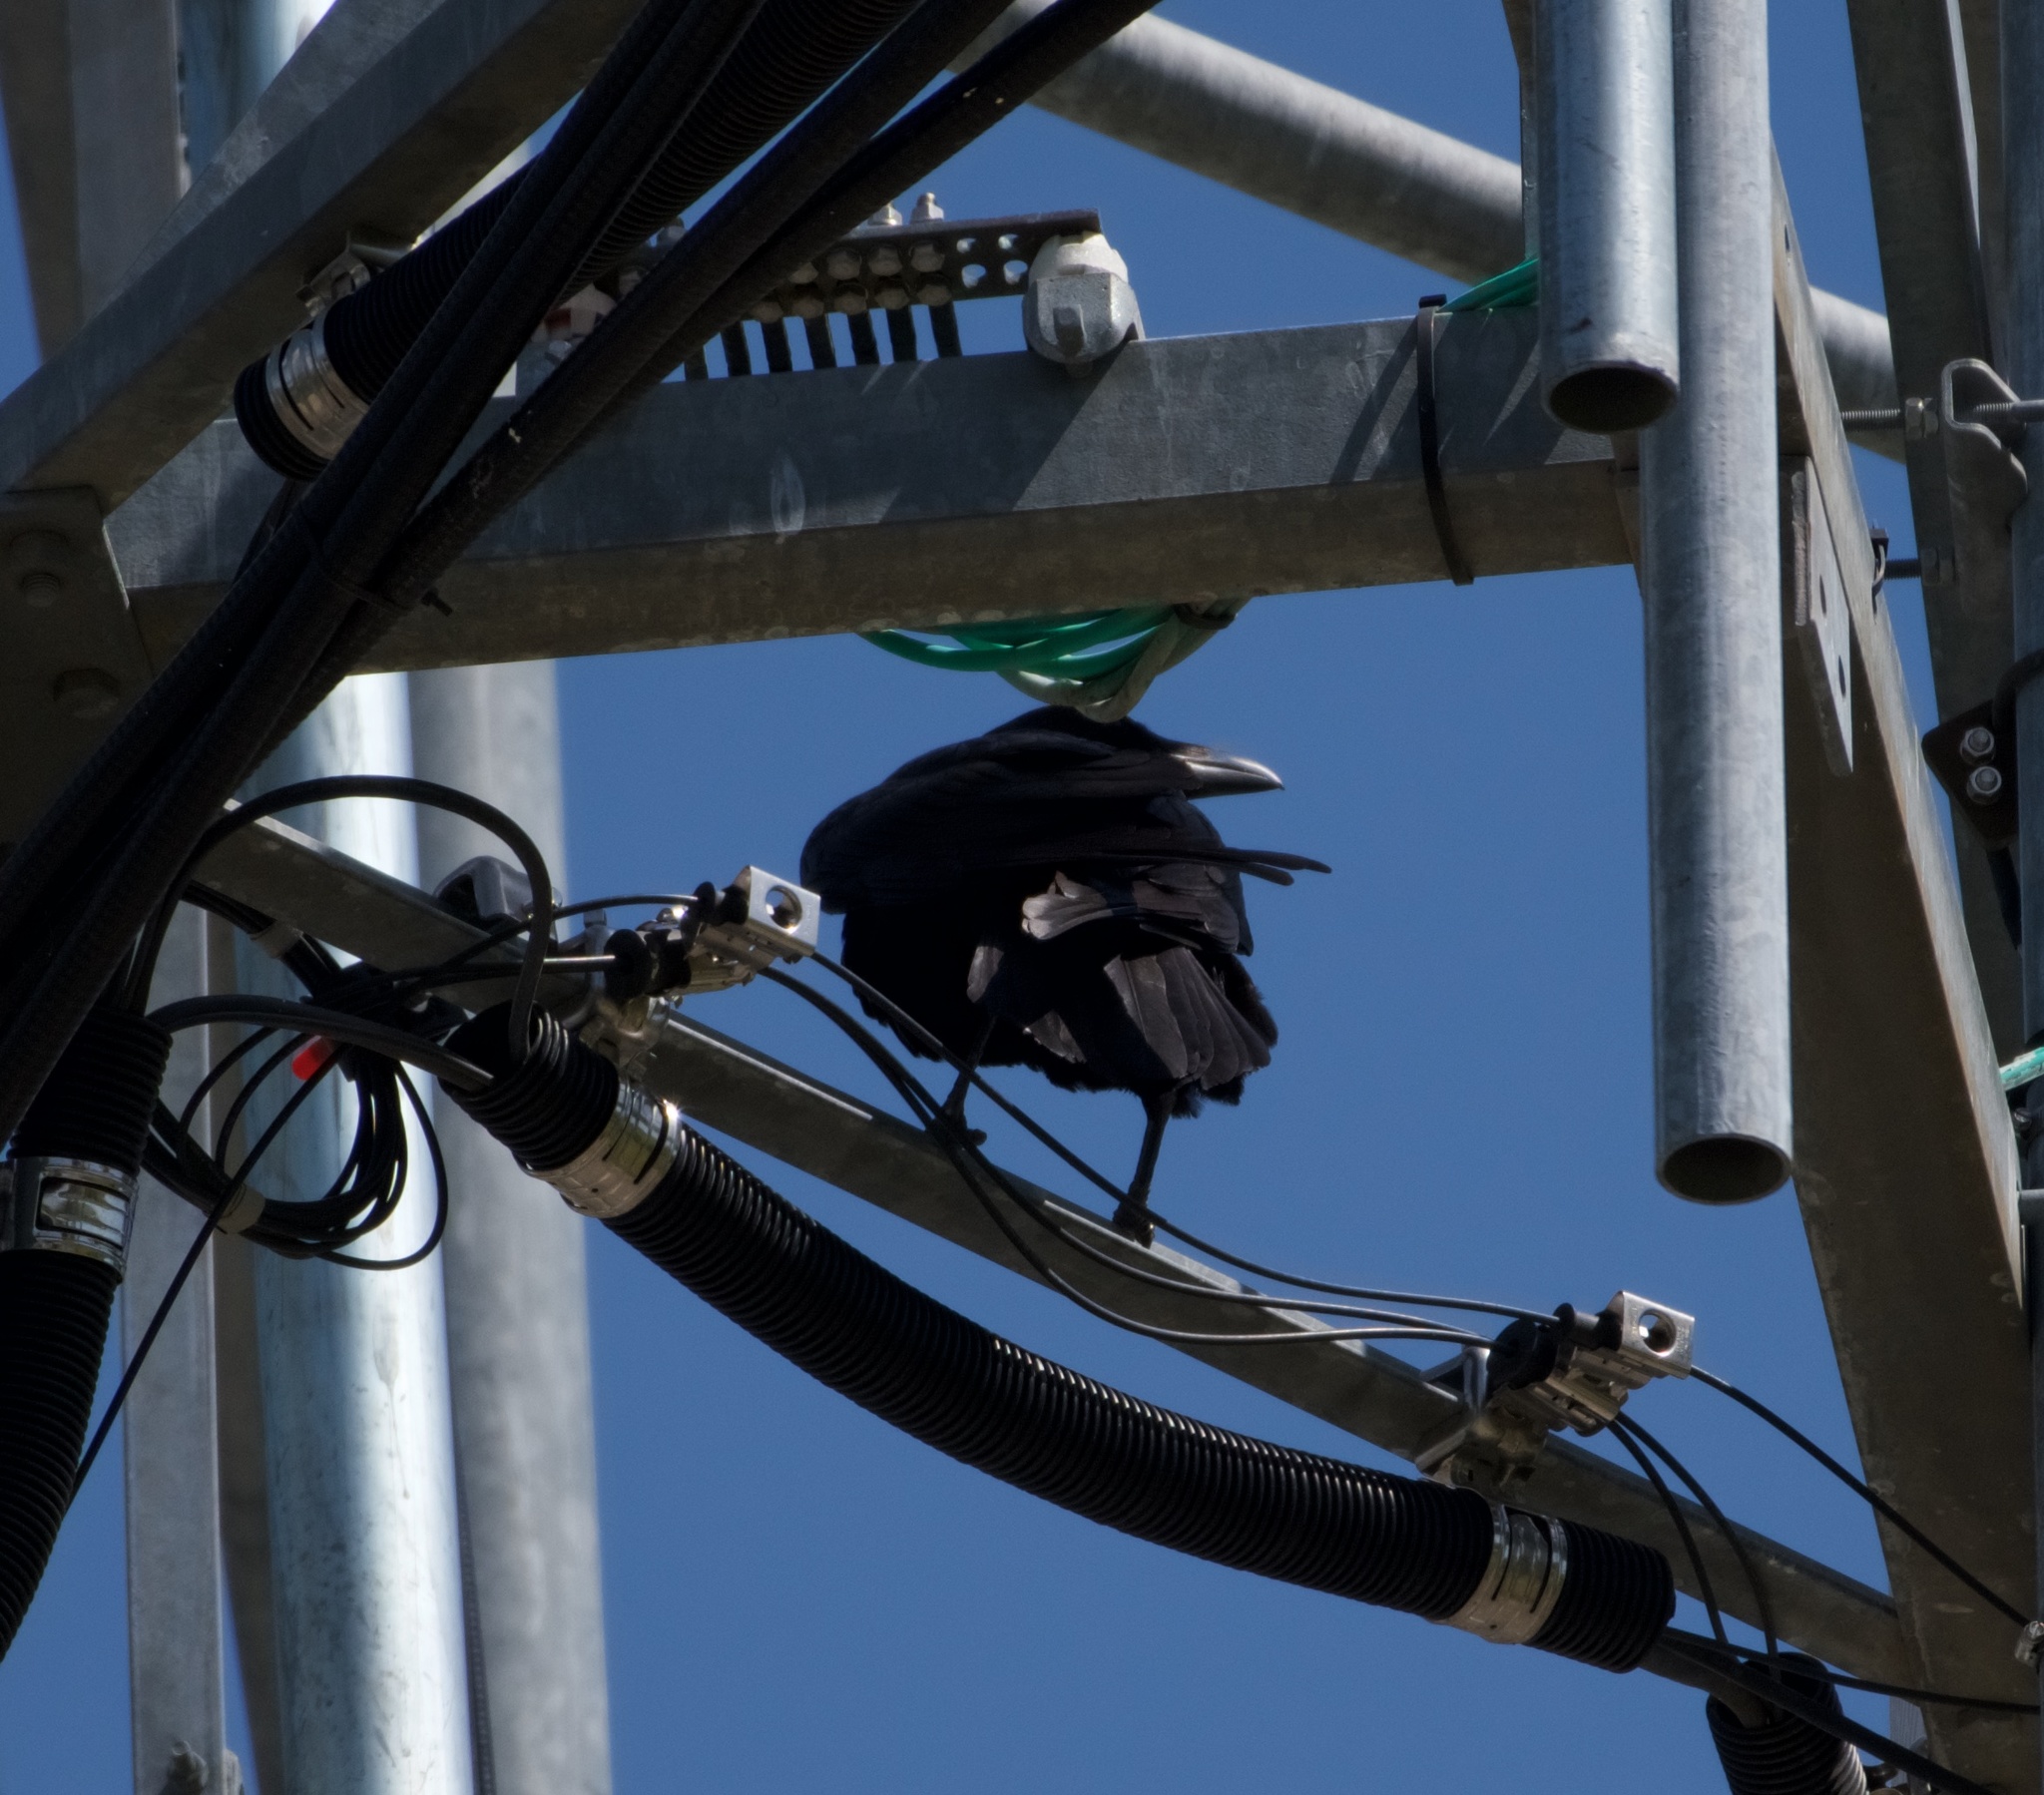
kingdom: Animalia
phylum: Chordata
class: Aves
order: Passeriformes
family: Corvidae
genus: Corvus
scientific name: Corvus corax
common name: Common raven
